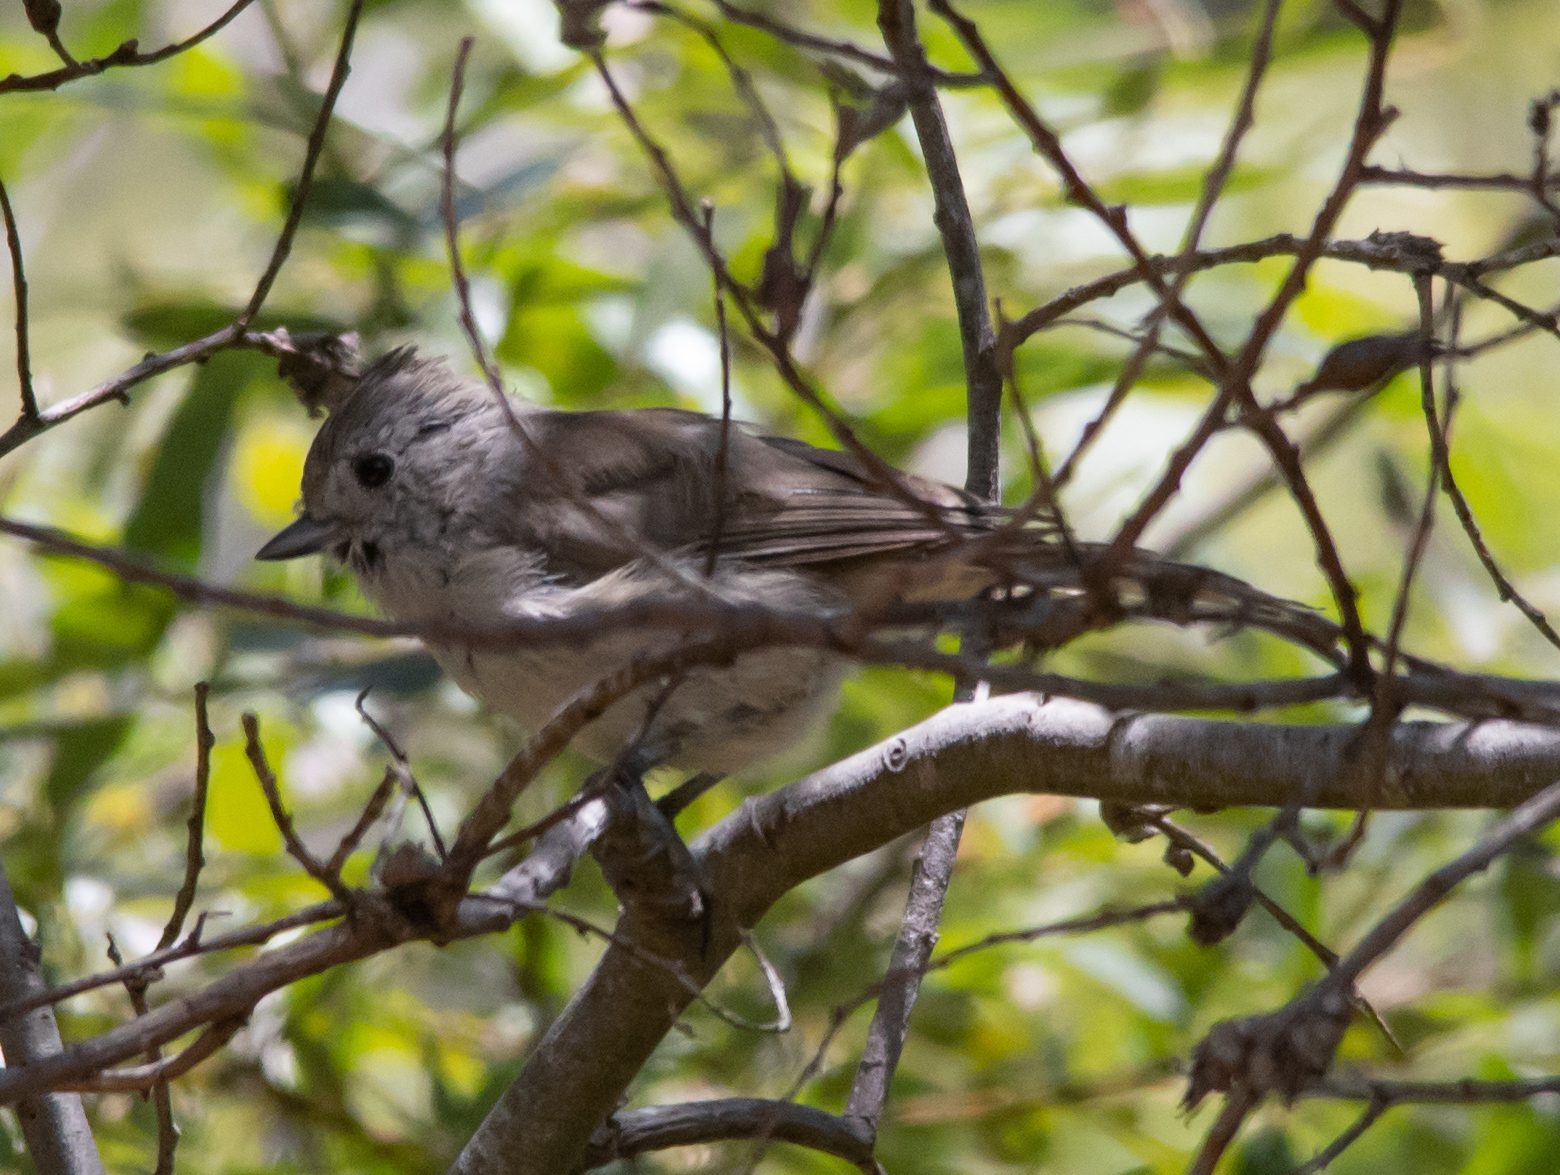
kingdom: Animalia
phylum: Chordata
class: Aves
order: Passeriformes
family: Paridae
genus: Baeolophus
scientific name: Baeolophus inornatus
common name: Oak titmouse
